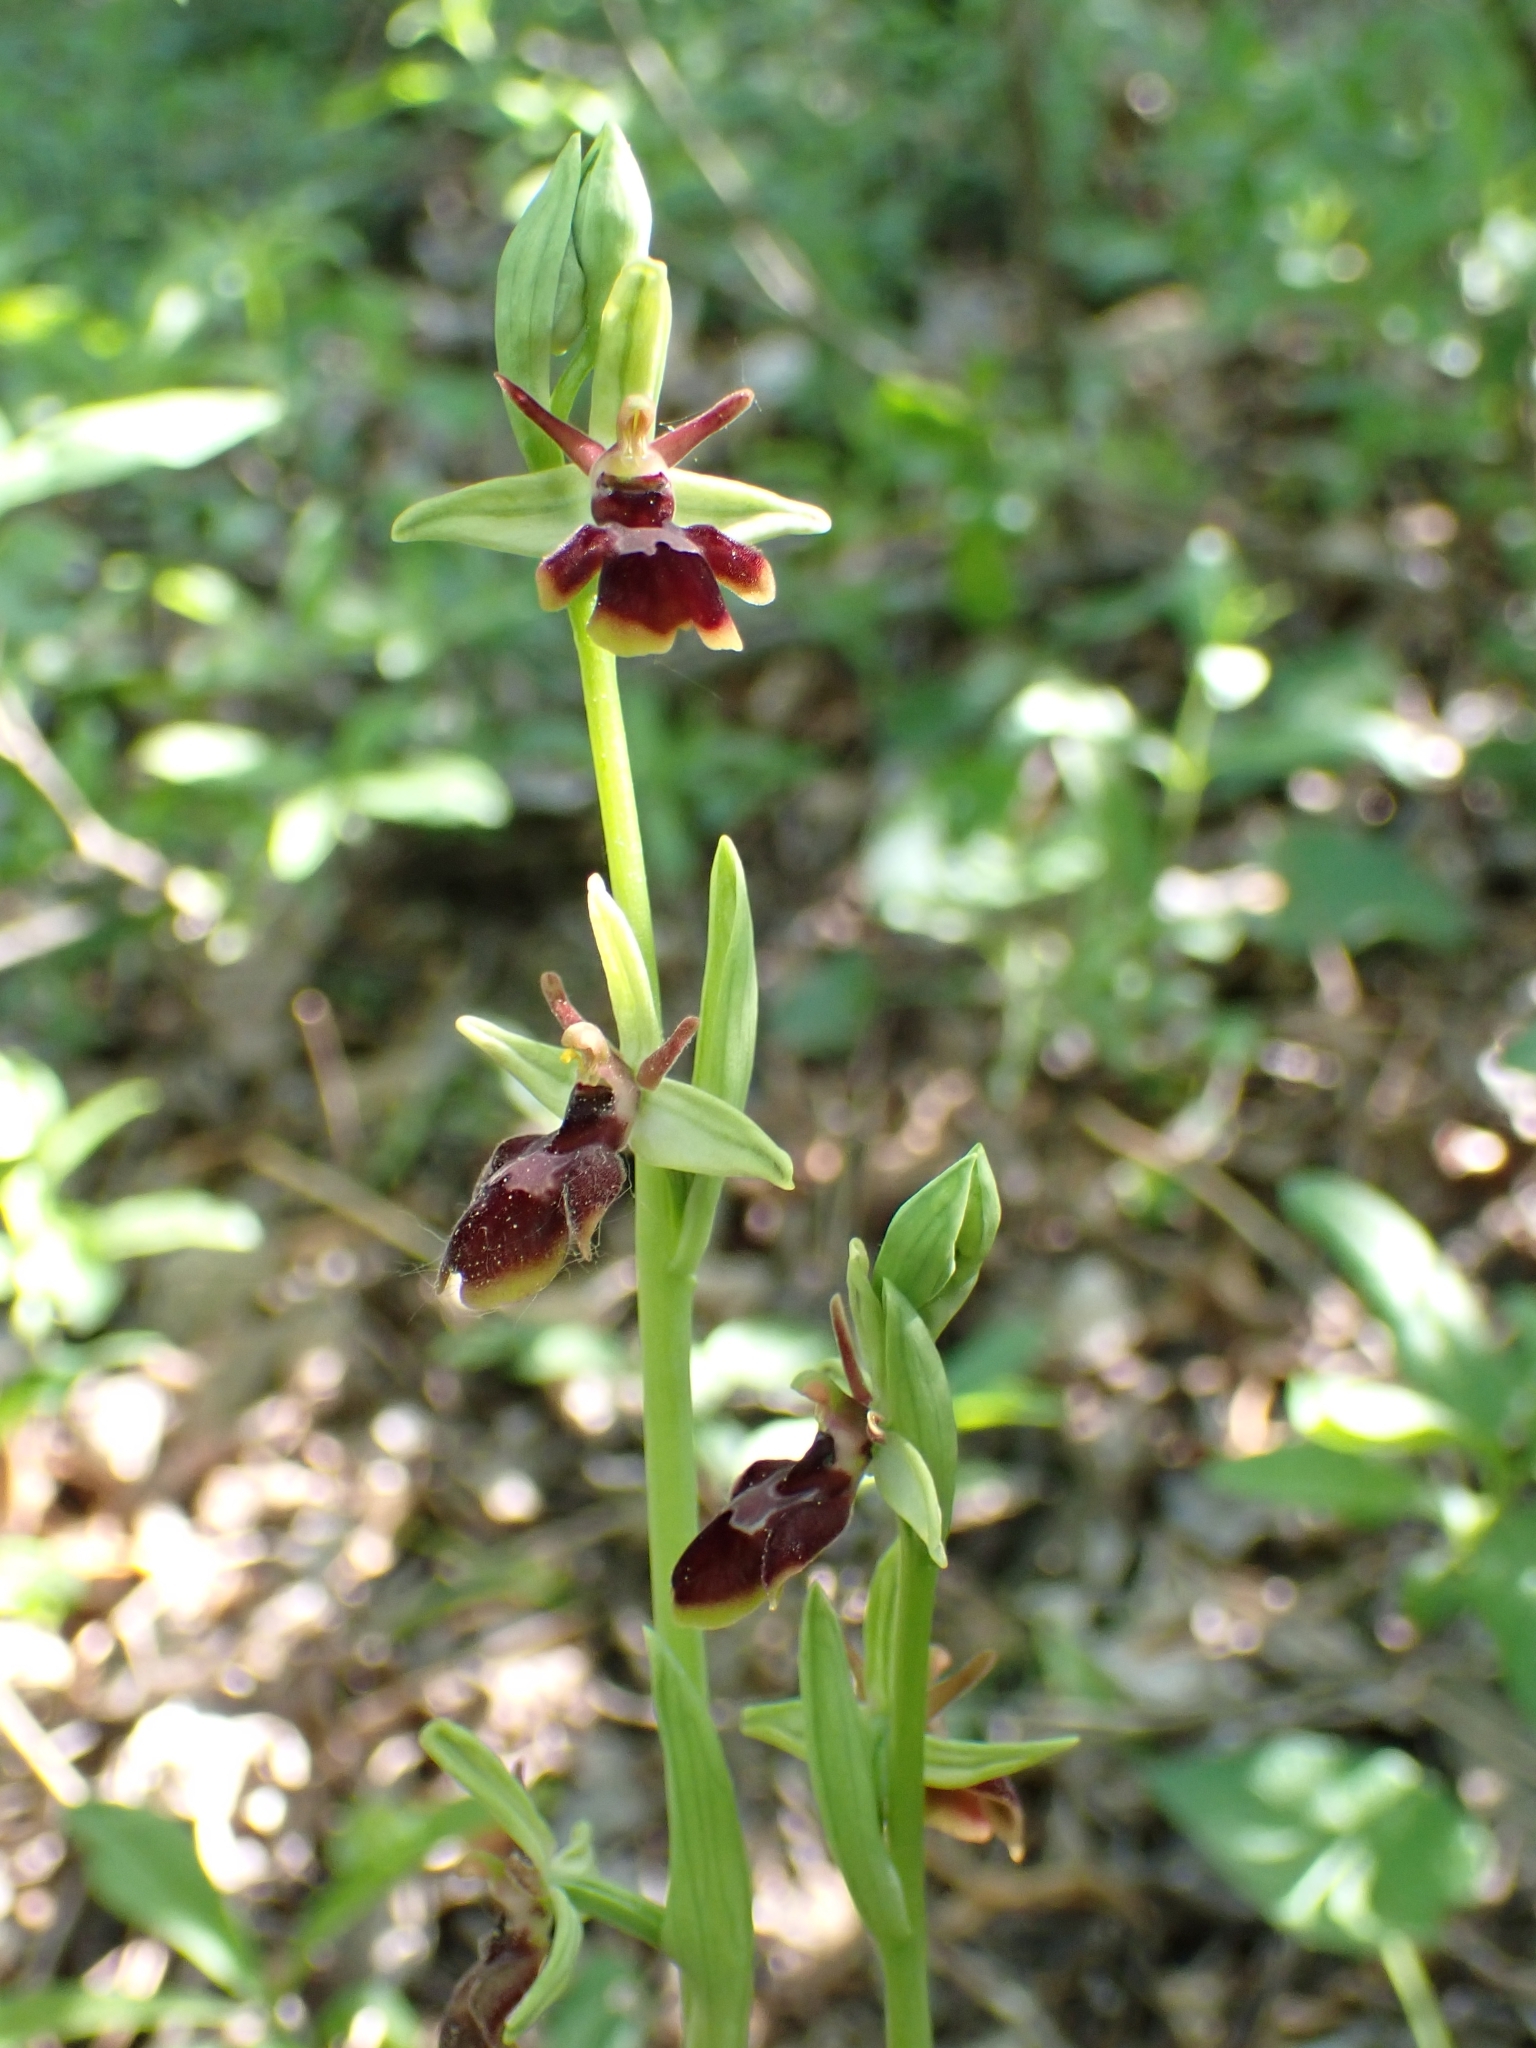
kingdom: Plantae
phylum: Tracheophyta
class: Liliopsida
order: Asparagales
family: Orchidaceae
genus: Ophrys
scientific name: Ophrys hybrida
